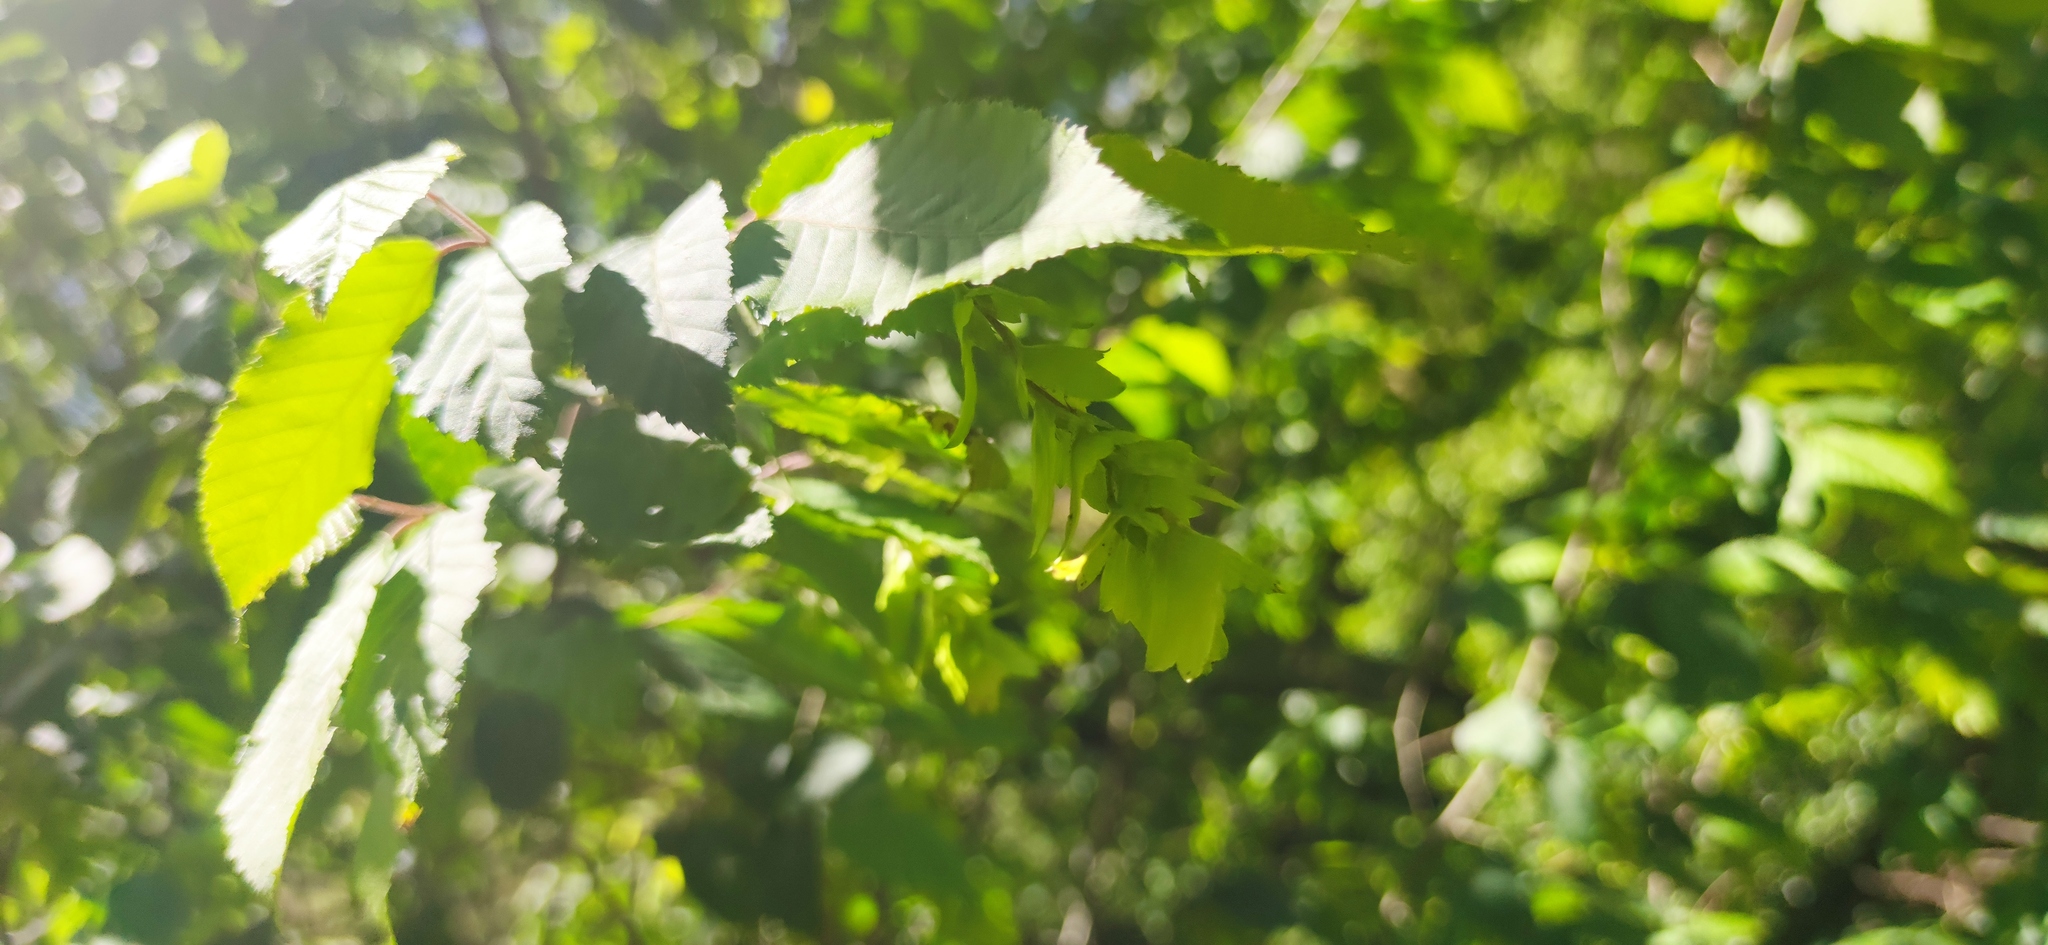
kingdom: Plantae
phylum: Tracheophyta
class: Magnoliopsida
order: Fagales
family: Betulaceae
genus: Carpinus
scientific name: Carpinus tropicalis
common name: Hornbeam
